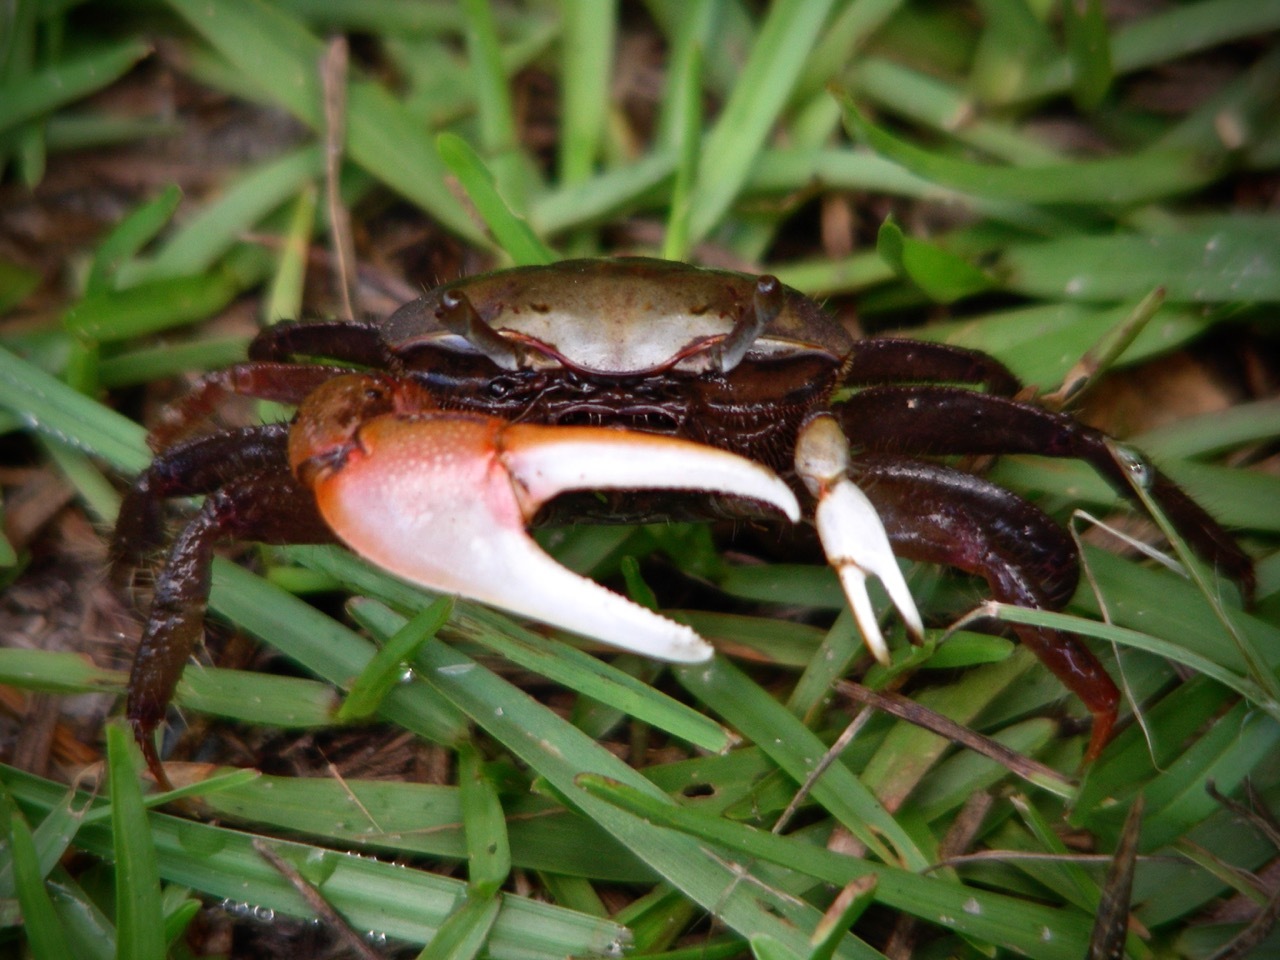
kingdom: Animalia
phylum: Arthropoda
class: Malacostraca
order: Decapoda
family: Ocypodidae
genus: Minuca
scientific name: Minuca minax
